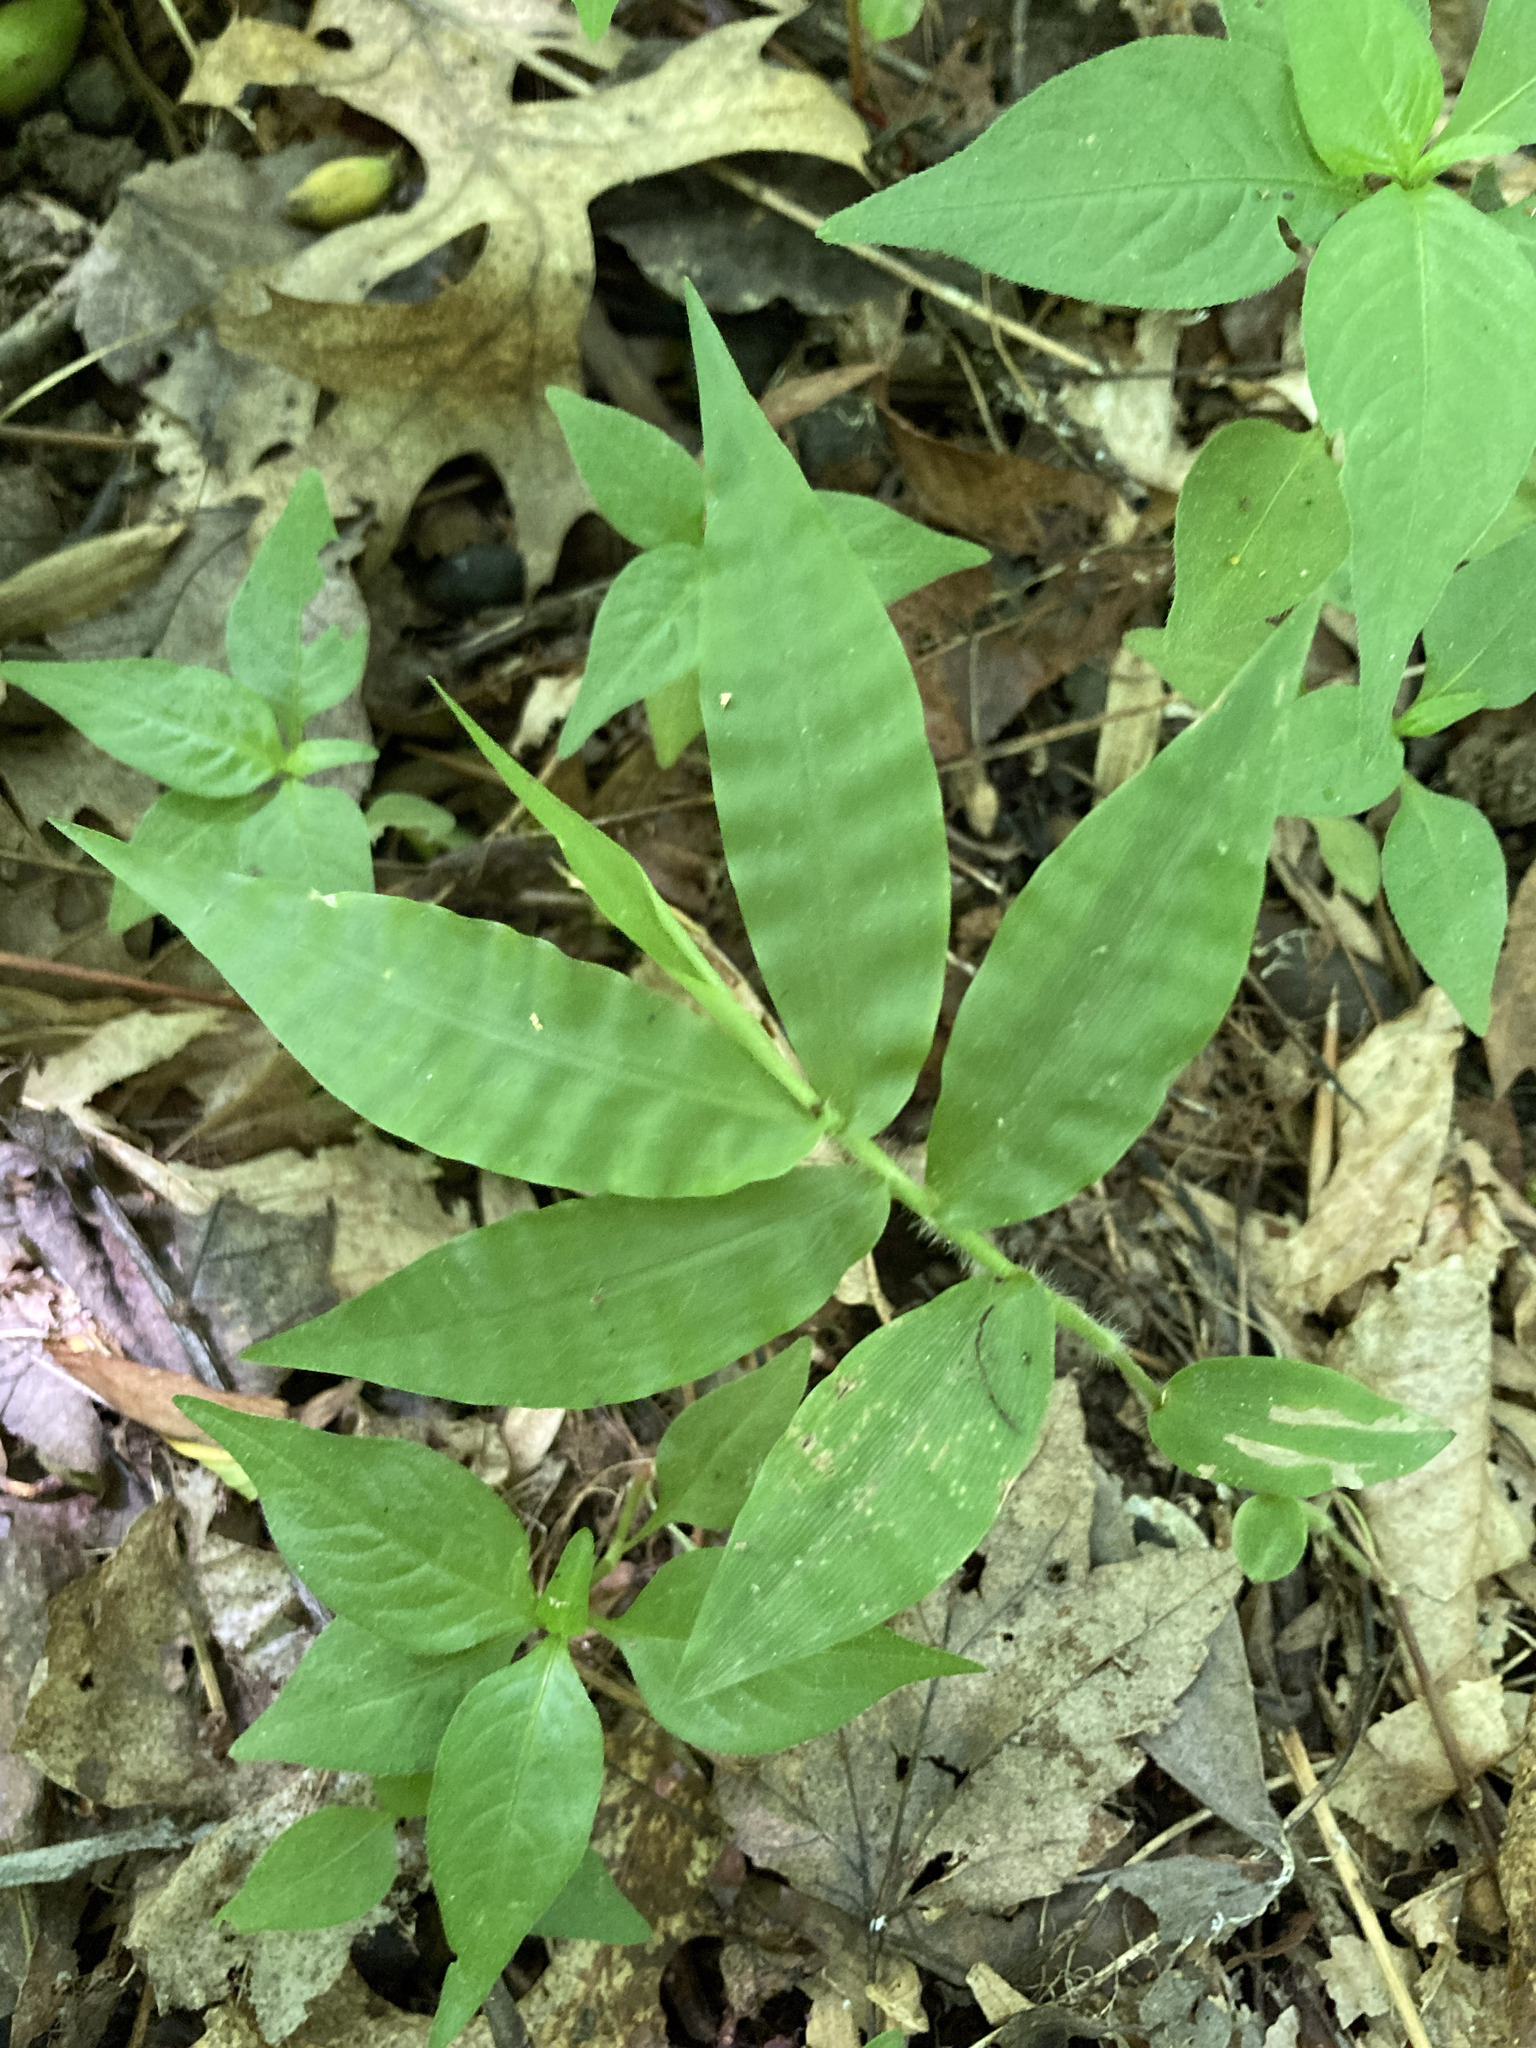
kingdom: Plantae
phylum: Tracheophyta
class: Liliopsida
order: Poales
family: Poaceae
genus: Oplismenus
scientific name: Oplismenus undulatifolius
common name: Wavyleaf basketgrass
